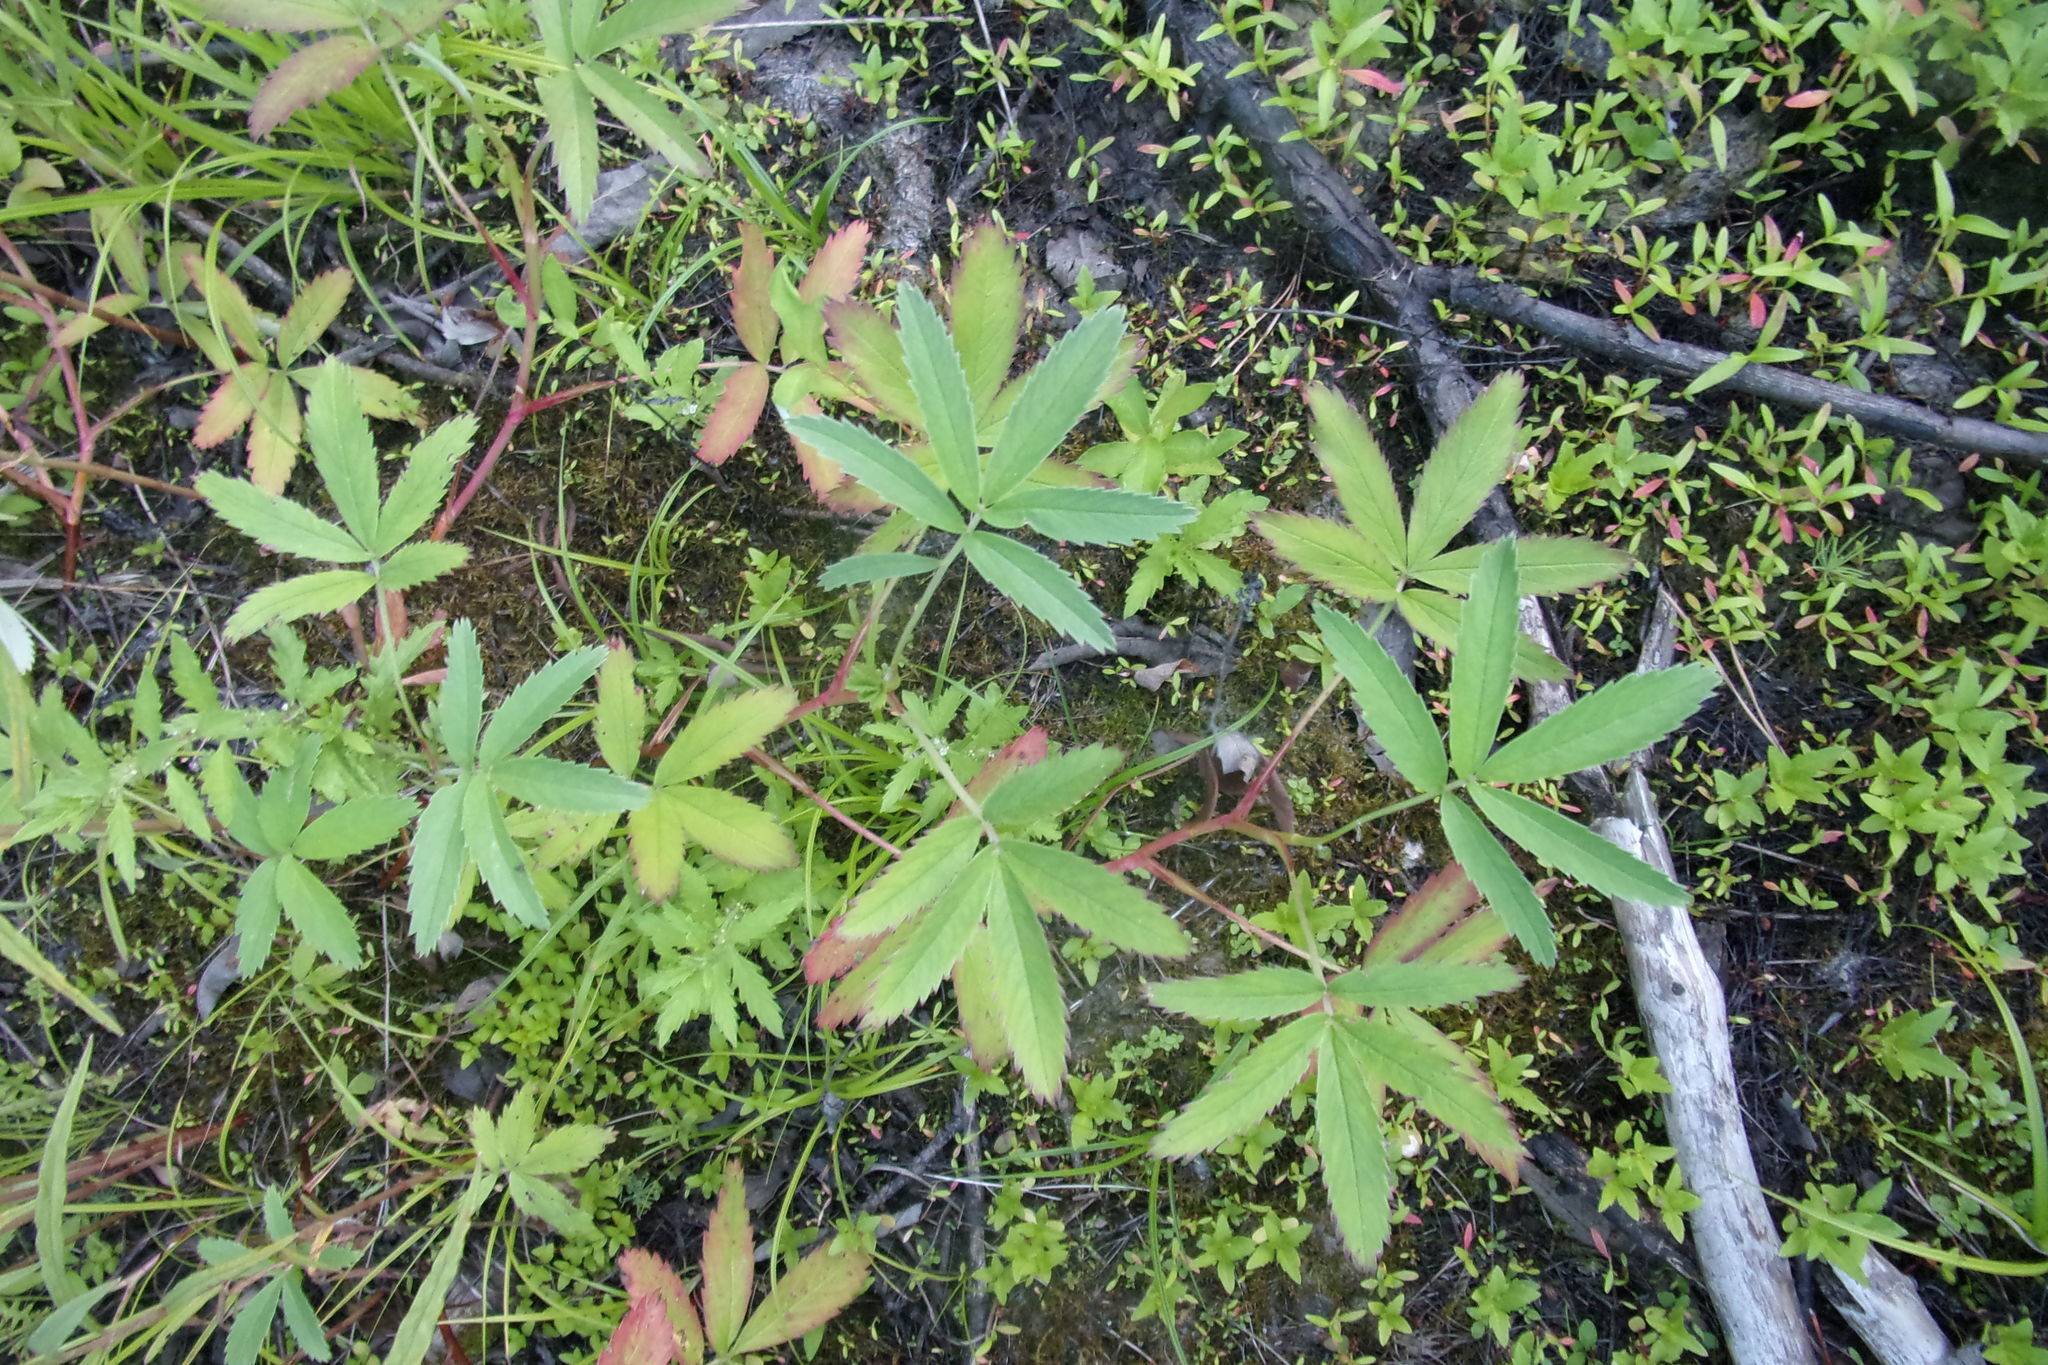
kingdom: Plantae
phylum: Tracheophyta
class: Magnoliopsida
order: Rosales
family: Rosaceae
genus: Comarum
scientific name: Comarum palustre
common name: Marsh cinquefoil
